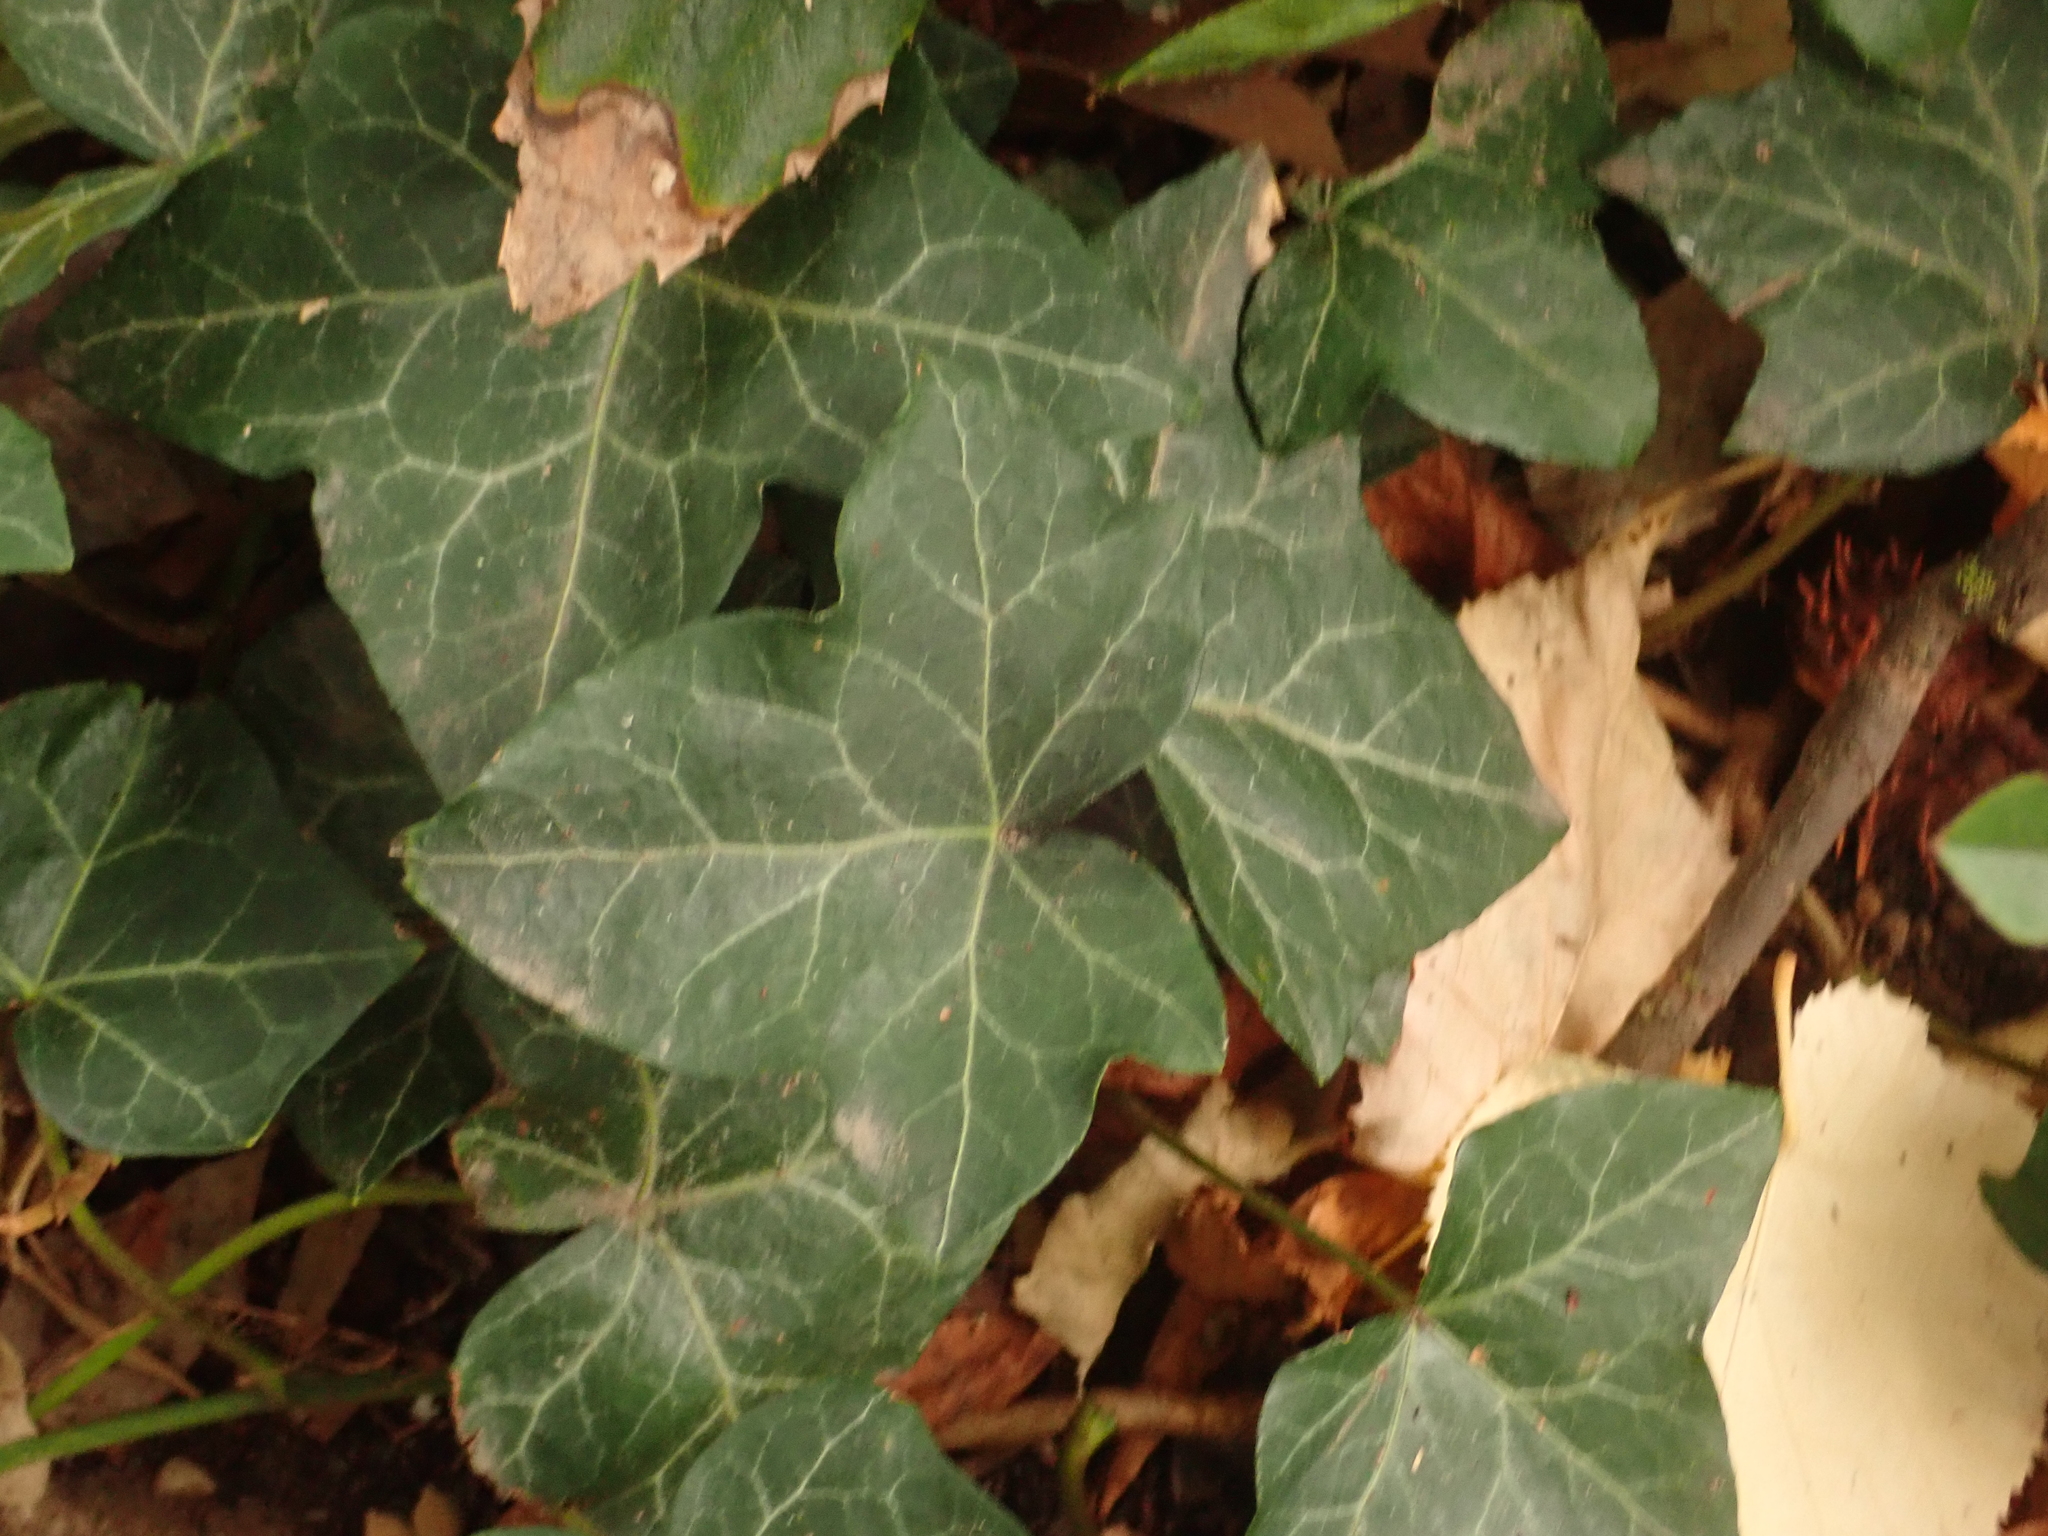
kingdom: Plantae
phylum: Tracheophyta
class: Magnoliopsida
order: Apiales
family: Araliaceae
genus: Hedera
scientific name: Hedera helix
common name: Ivy
